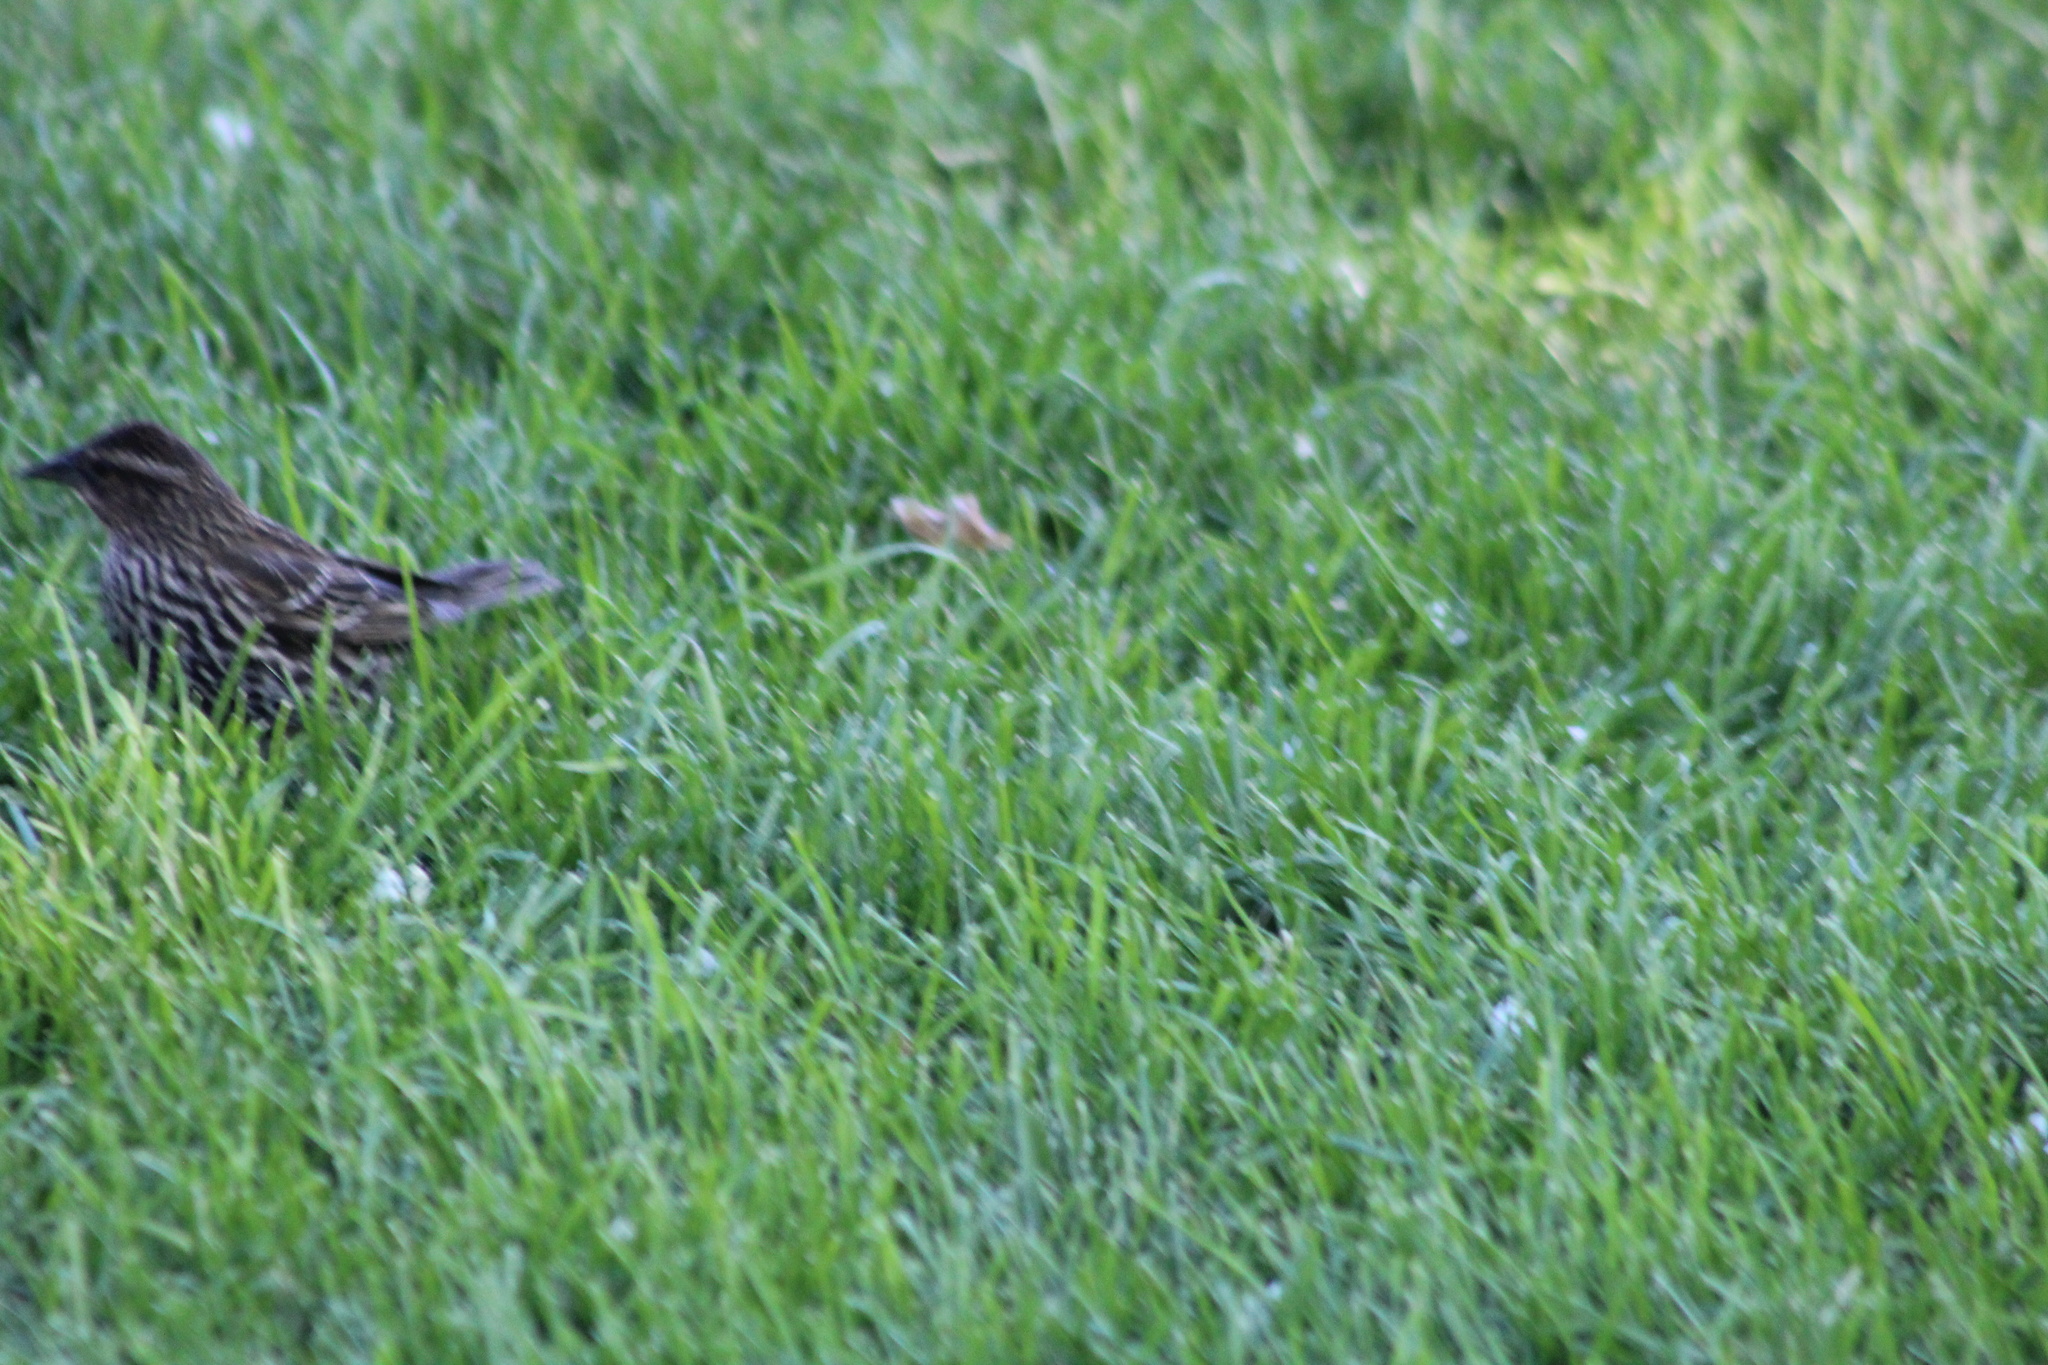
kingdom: Animalia
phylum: Chordata
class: Aves
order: Passeriformes
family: Icteridae
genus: Agelaius
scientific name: Agelaius phoeniceus
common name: Red-winged blackbird
